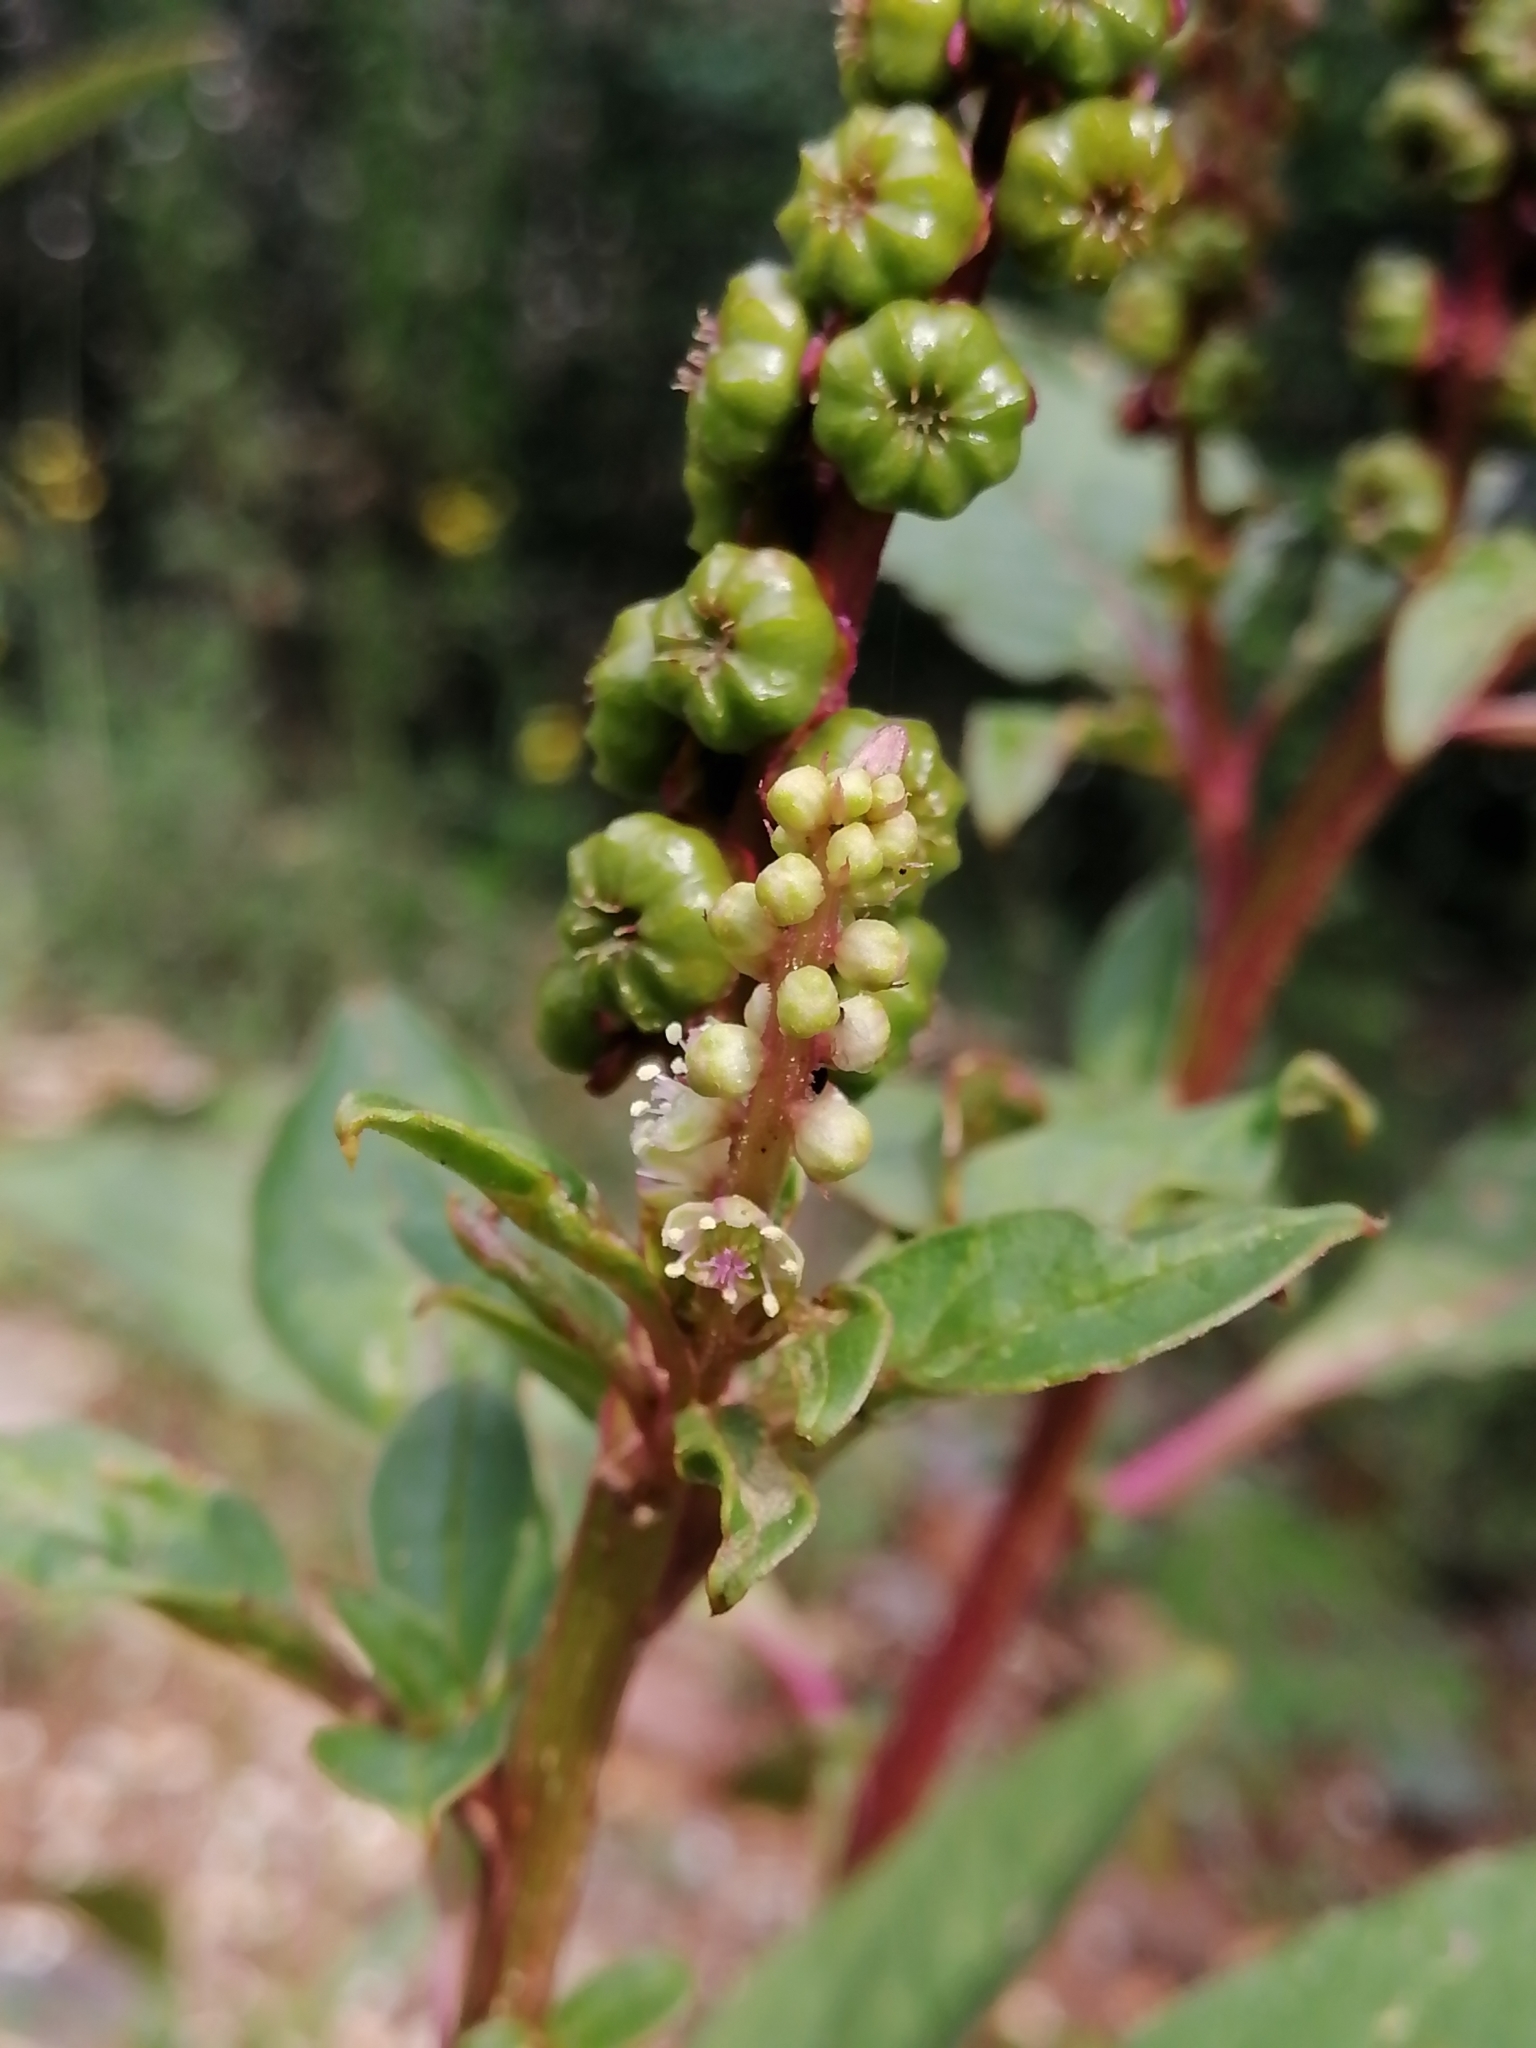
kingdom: Plantae
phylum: Tracheophyta
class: Magnoliopsida
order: Caryophyllales
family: Phytolaccaceae
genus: Phytolacca
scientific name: Phytolacca icosandra
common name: Button pokeweed
